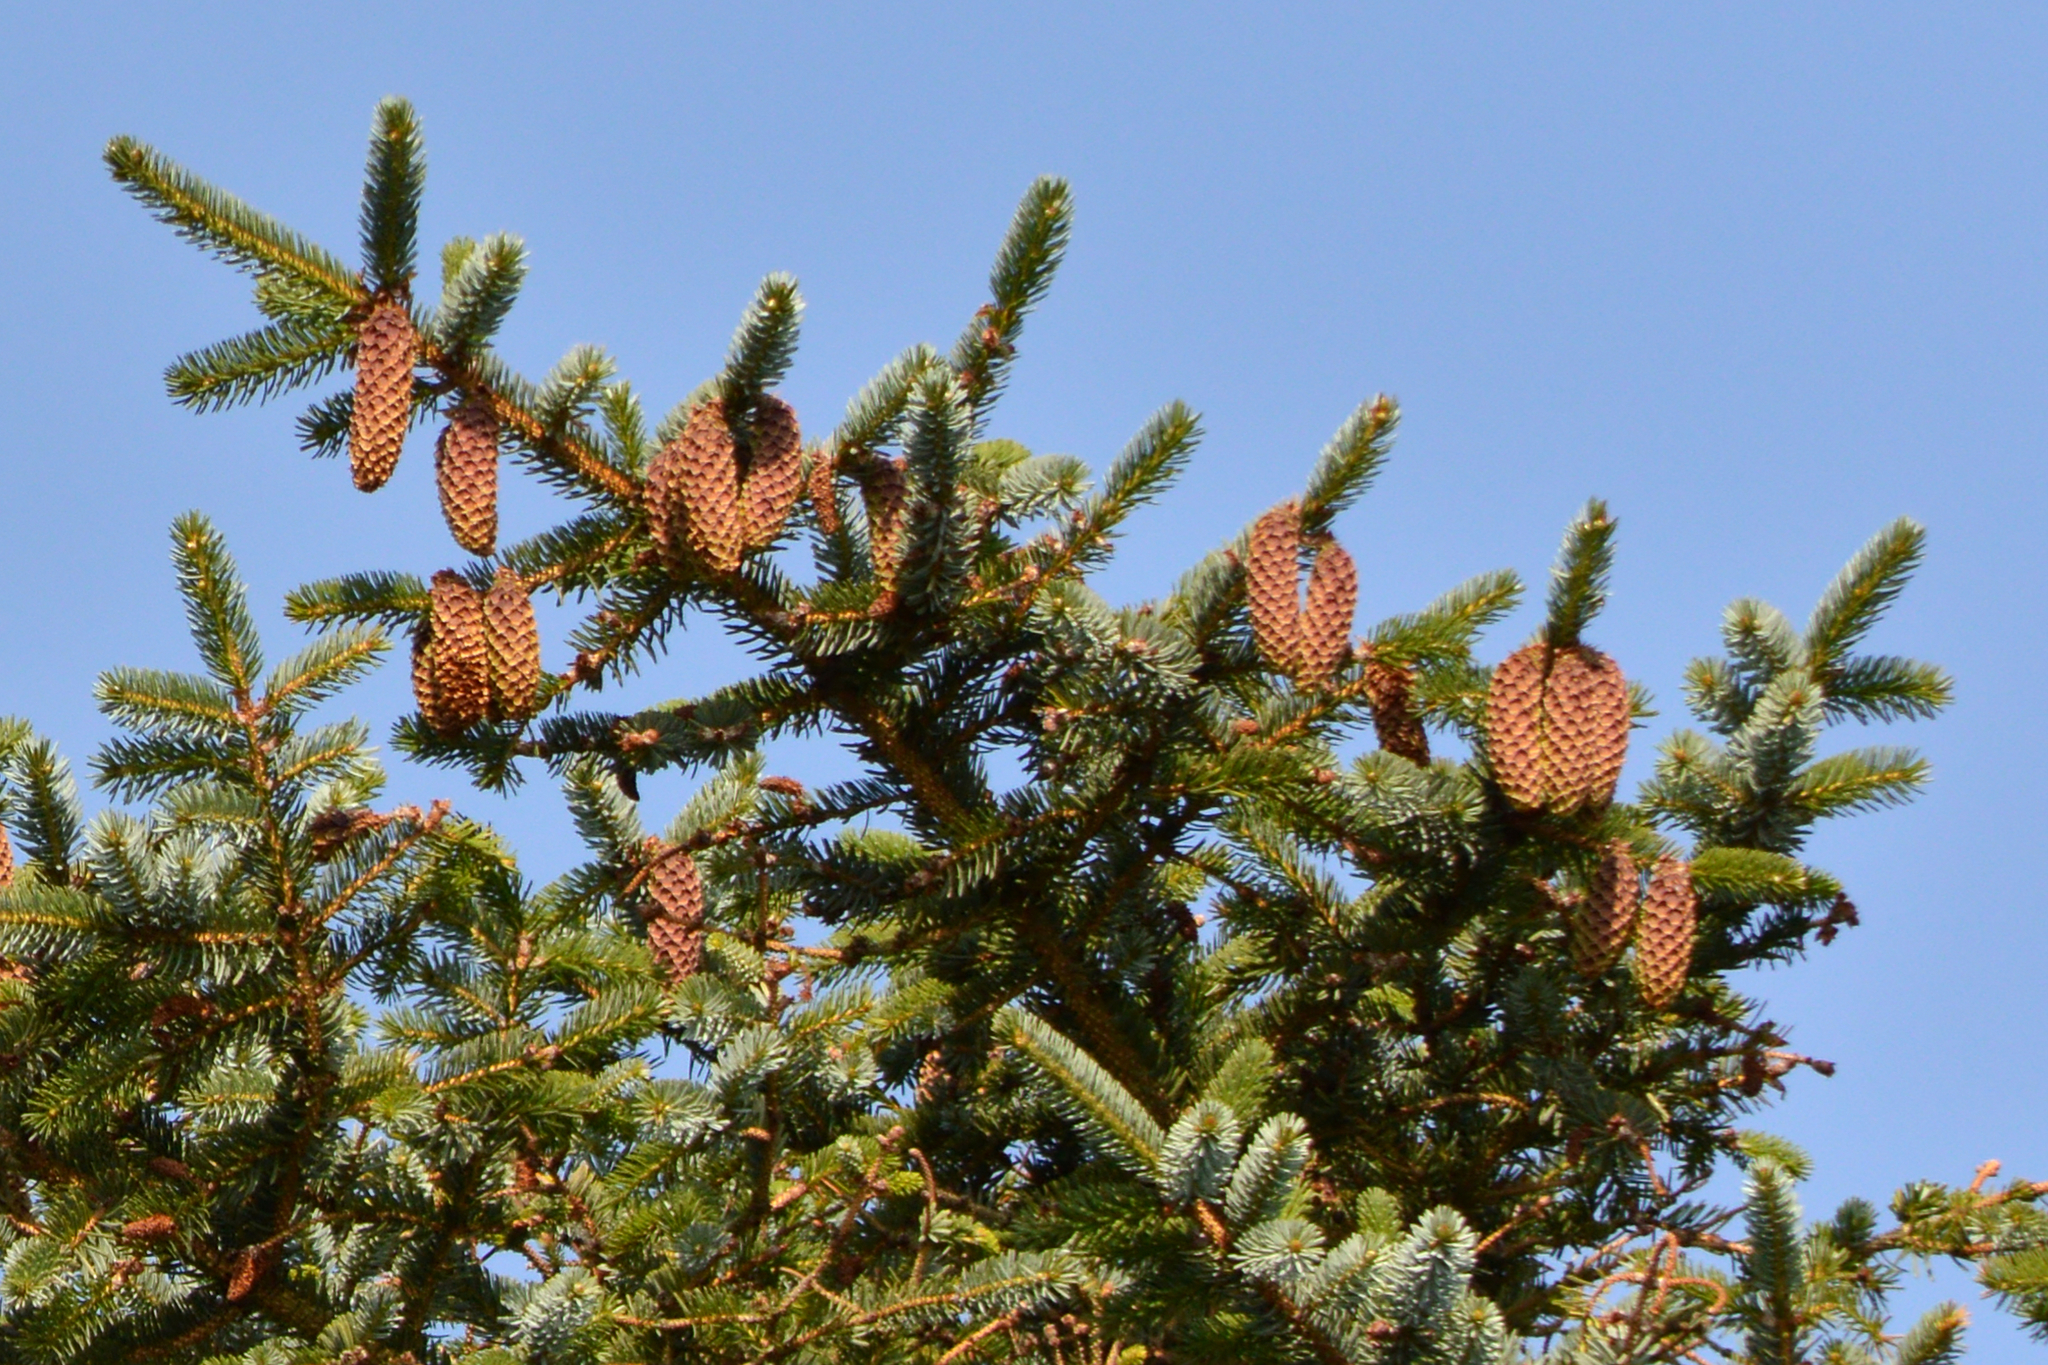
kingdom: Plantae
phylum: Tracheophyta
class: Pinopsida
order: Pinales
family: Pinaceae
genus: Picea
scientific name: Picea sitchensis
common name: Sitka spruce
